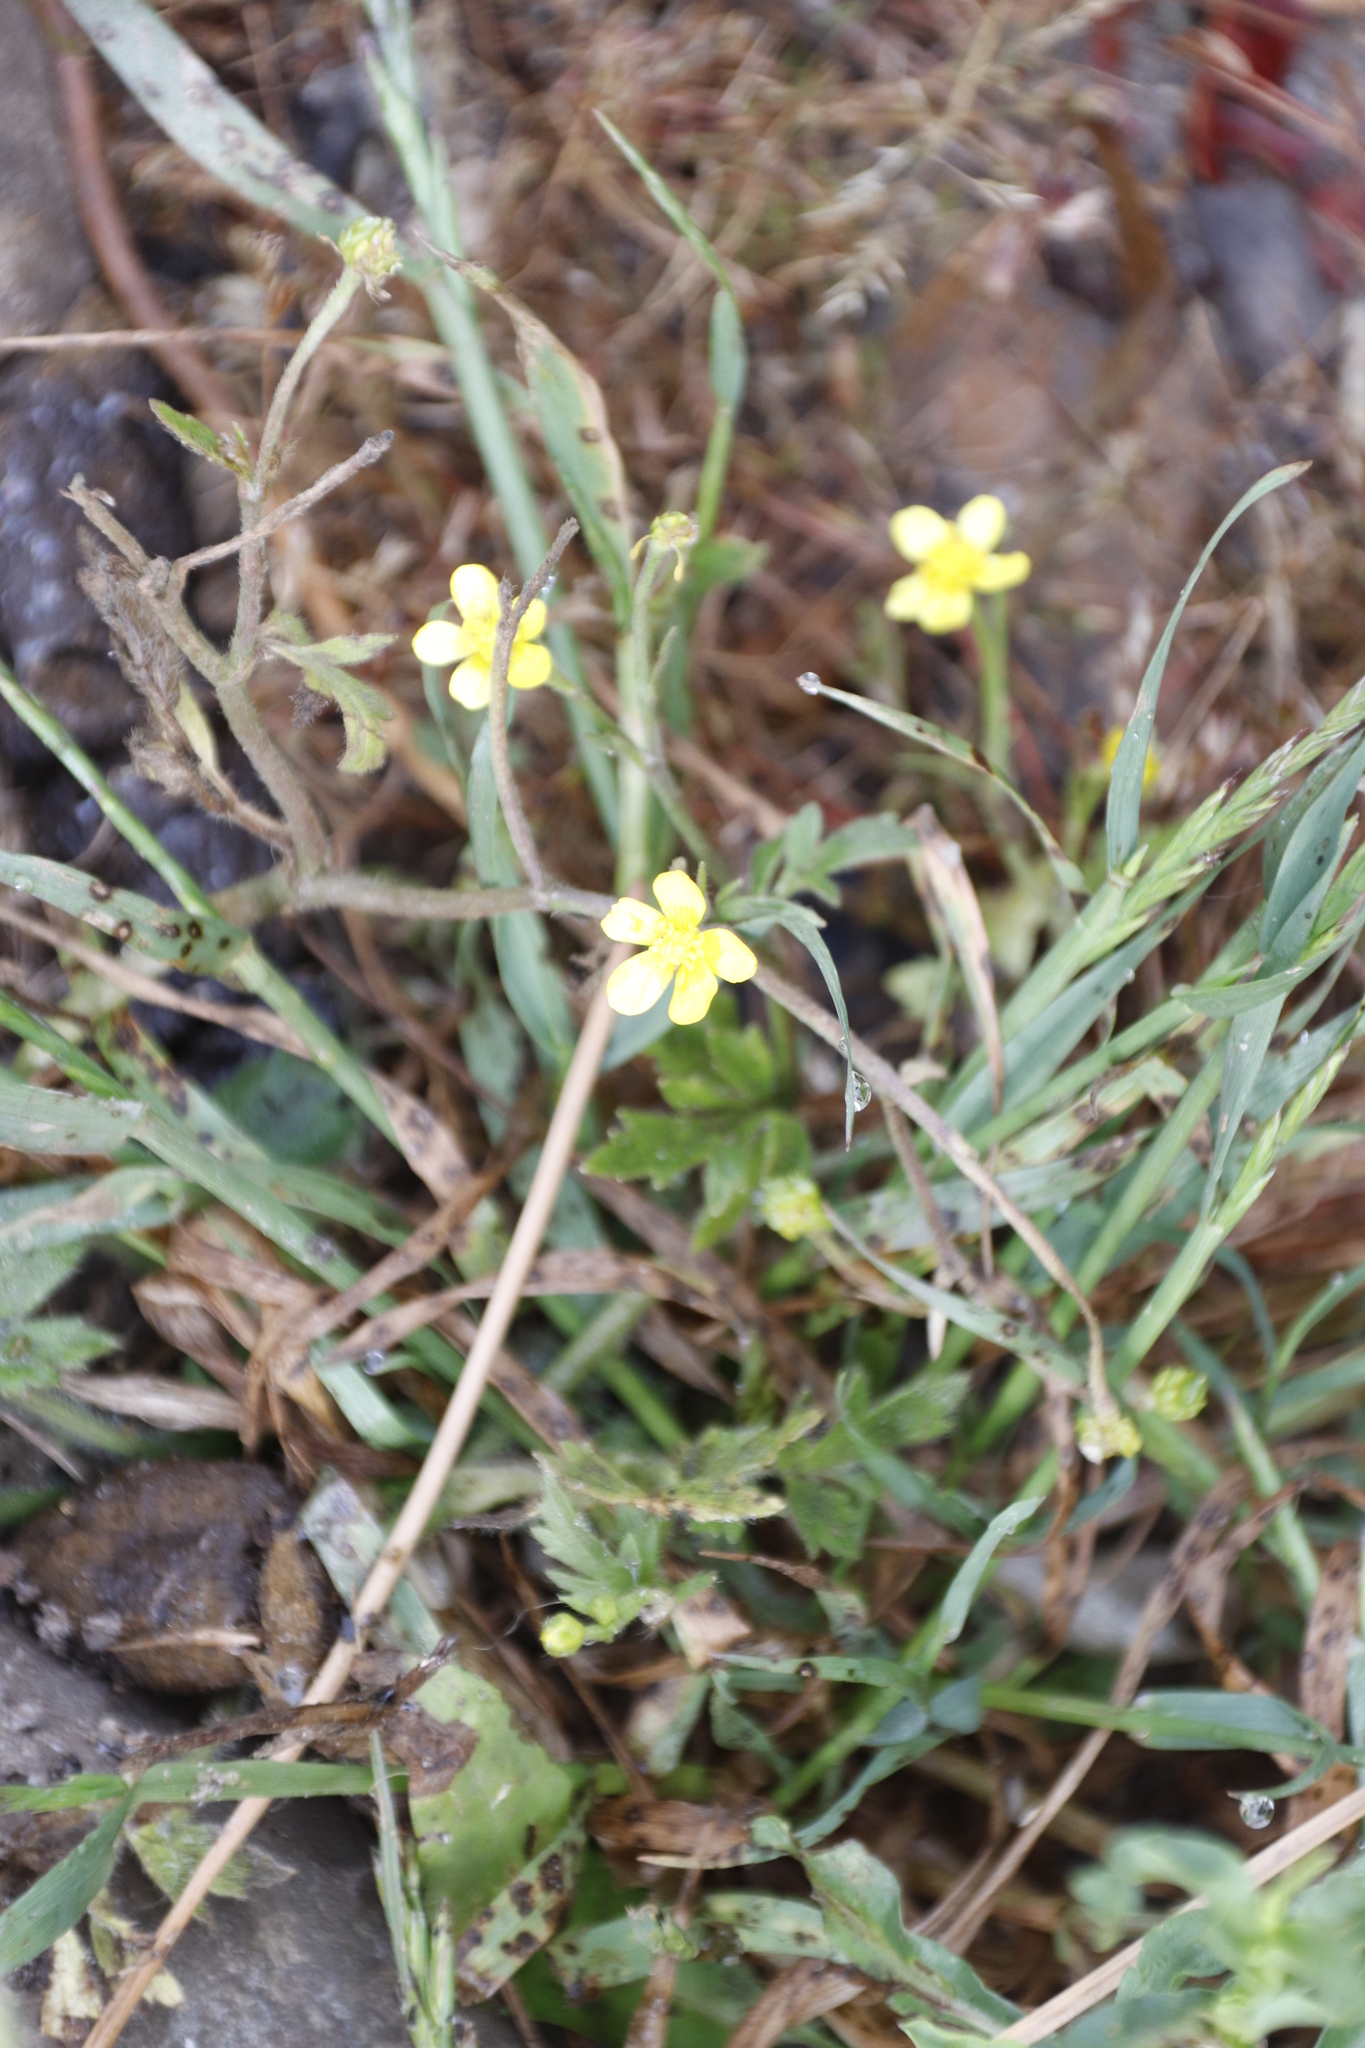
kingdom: Plantae
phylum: Tracheophyta
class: Magnoliopsida
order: Ranunculales
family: Ranunculaceae
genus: Ranunculus
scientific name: Ranunculus multifidus
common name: Wild buttercup
